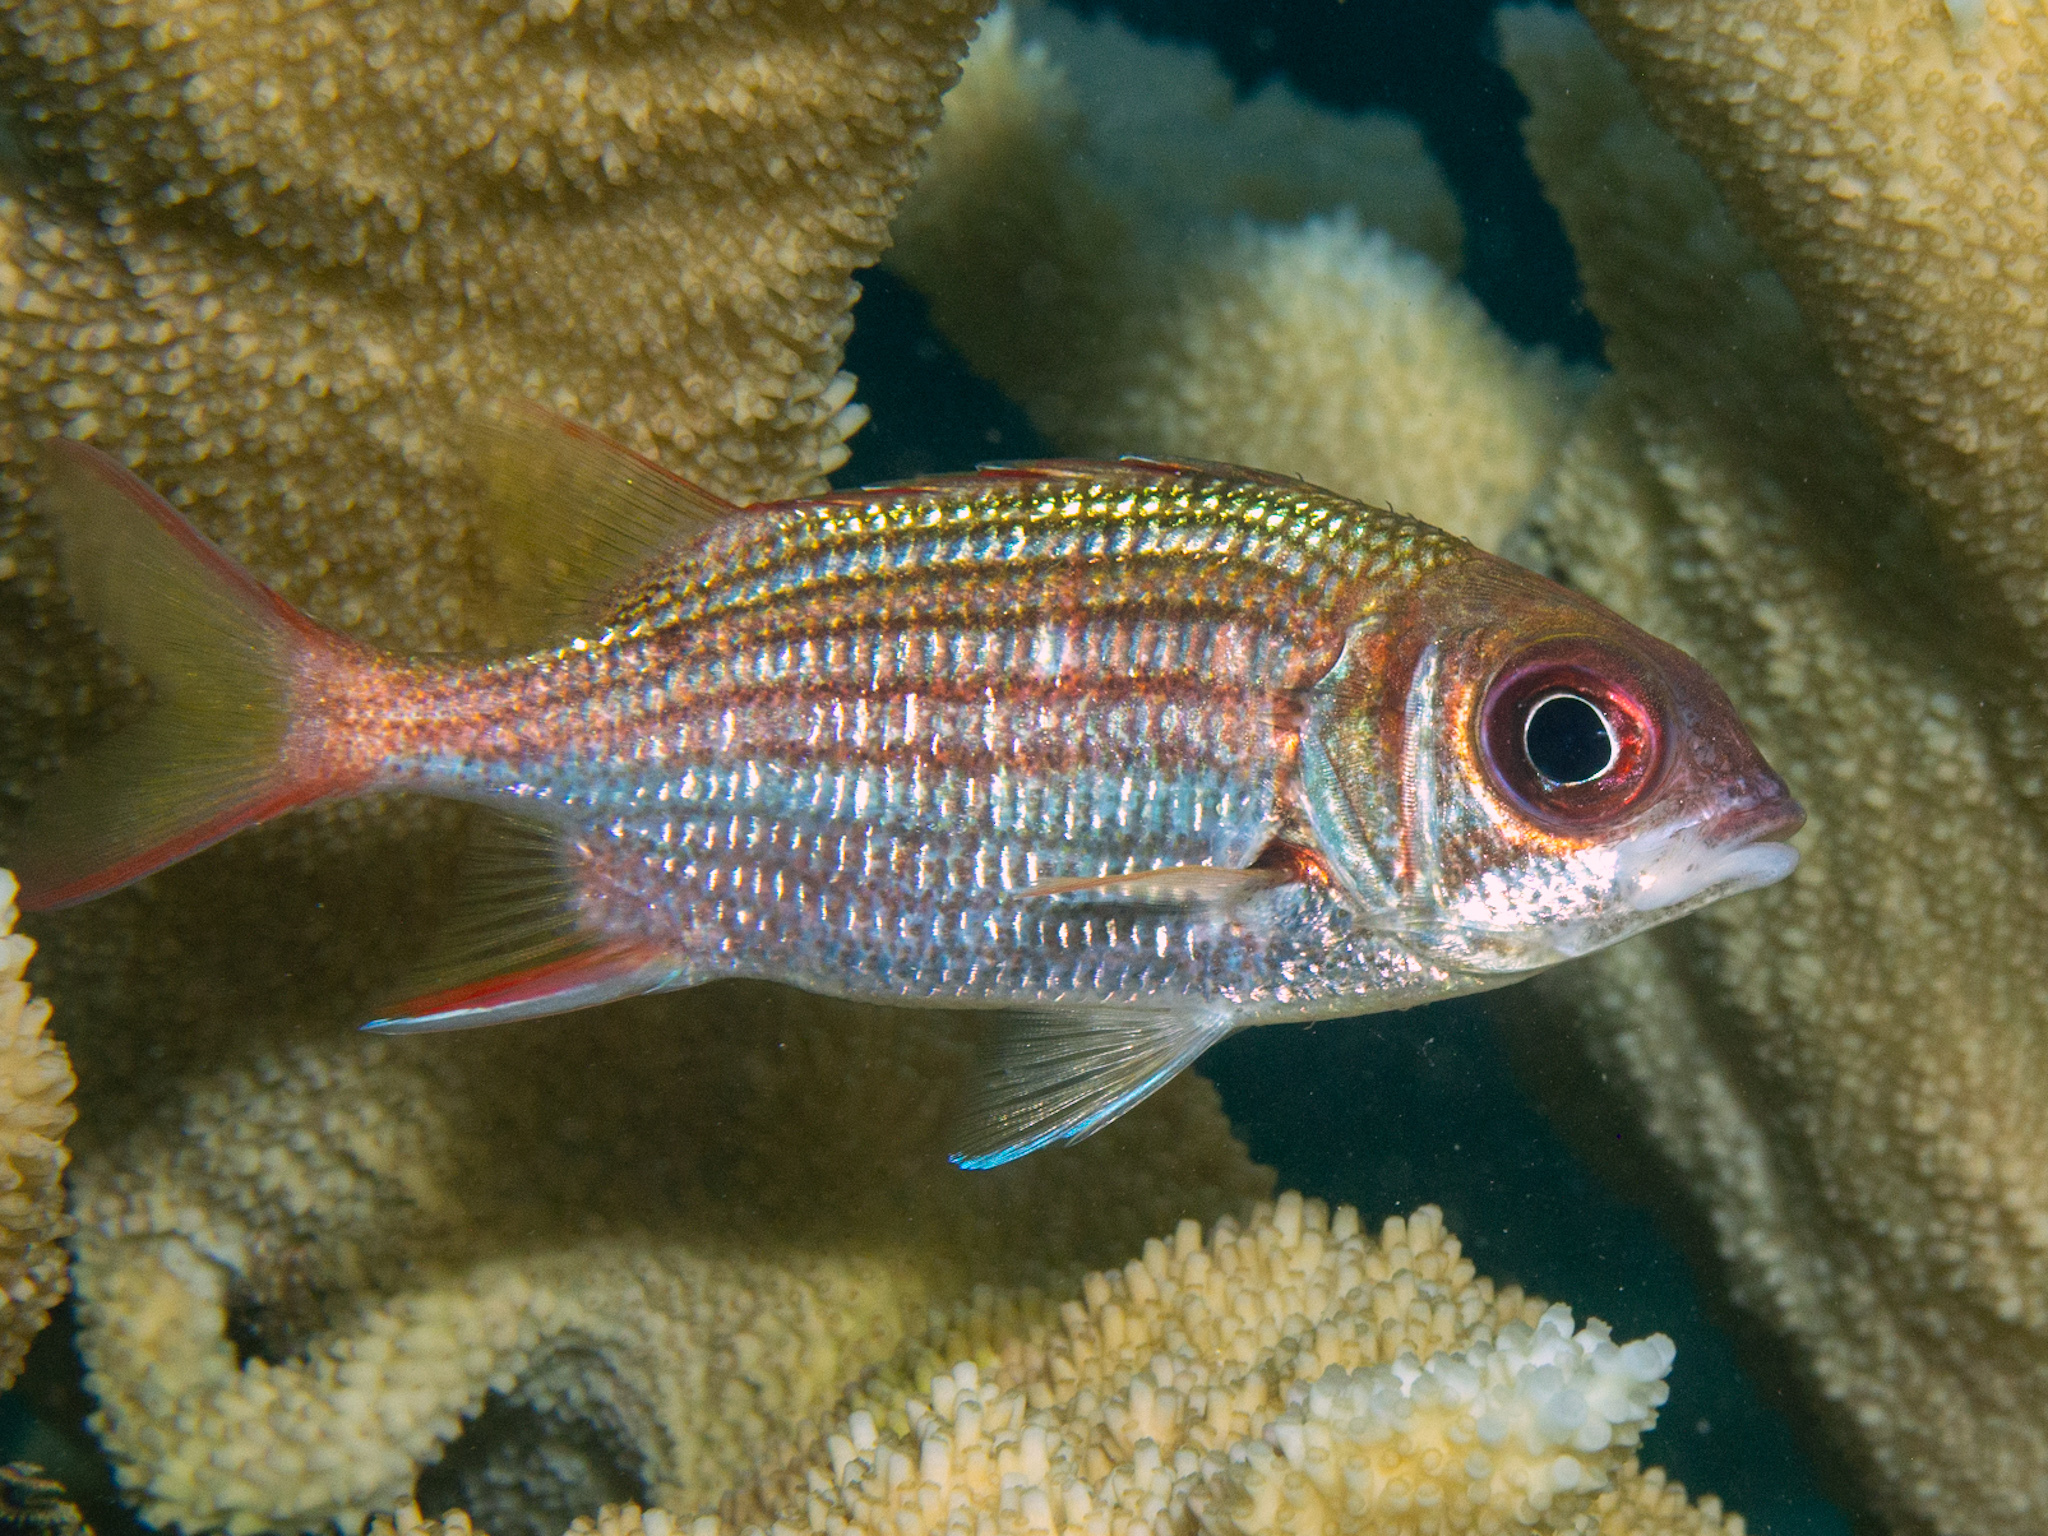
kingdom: Animalia
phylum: Chordata
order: Beryciformes
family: Holocentridae
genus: Neoniphon
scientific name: Neoniphon vexillarium
